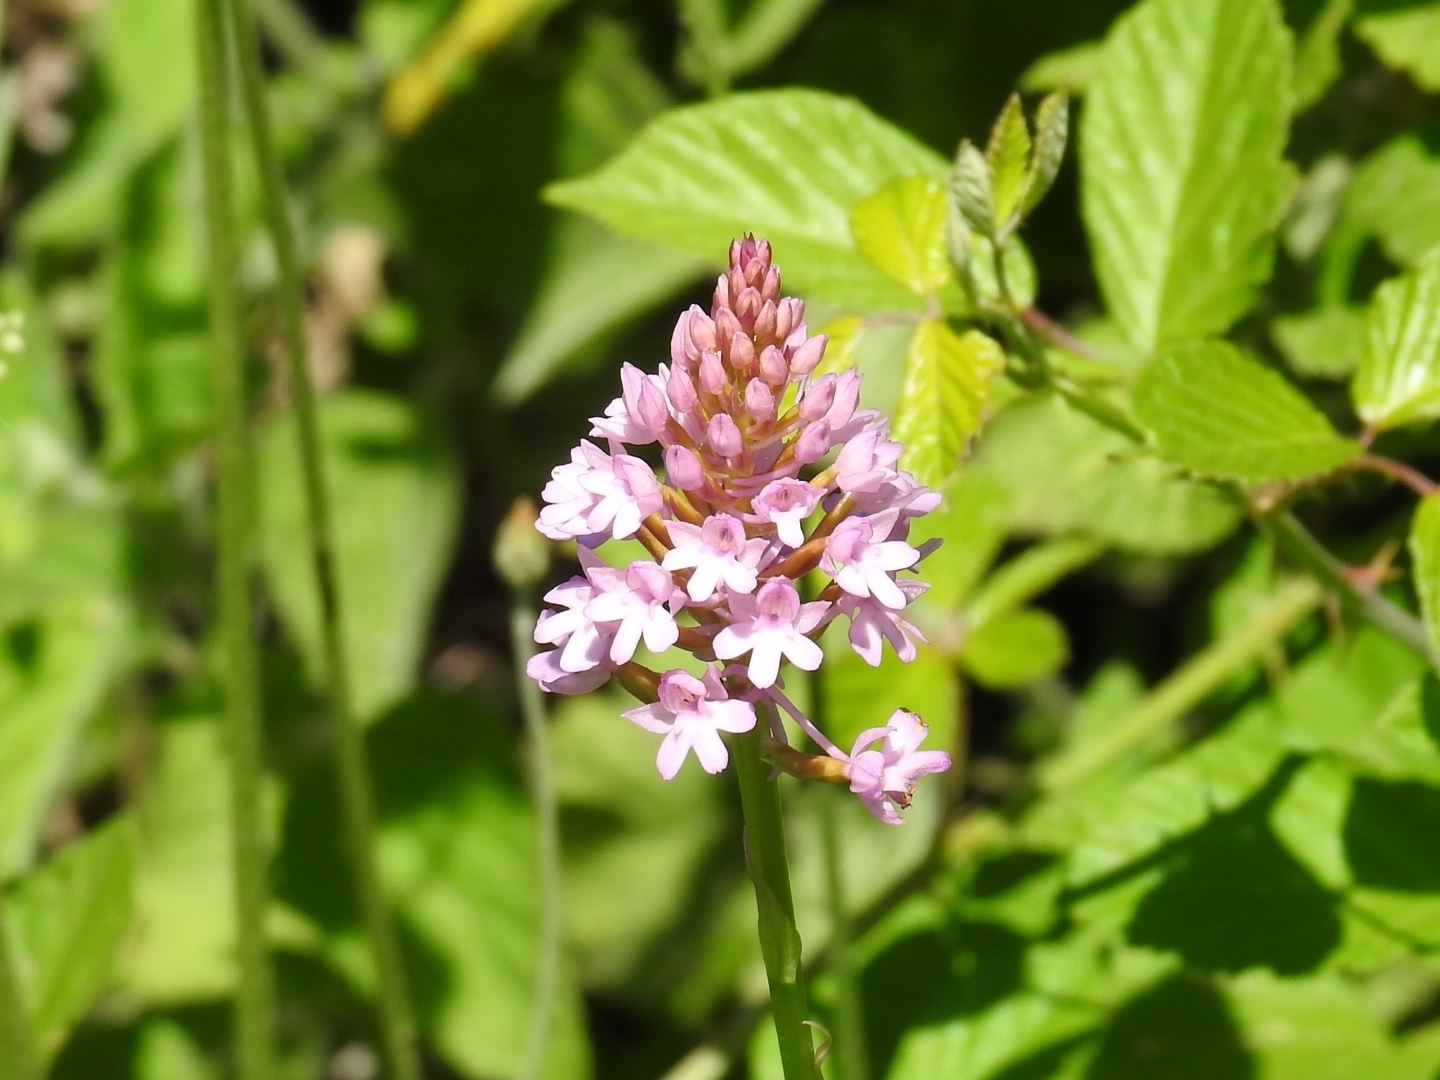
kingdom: Plantae
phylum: Tracheophyta
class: Liliopsida
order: Asparagales
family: Orchidaceae
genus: Anacamptis
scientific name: Anacamptis pyramidalis
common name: Pyramidal orchid
